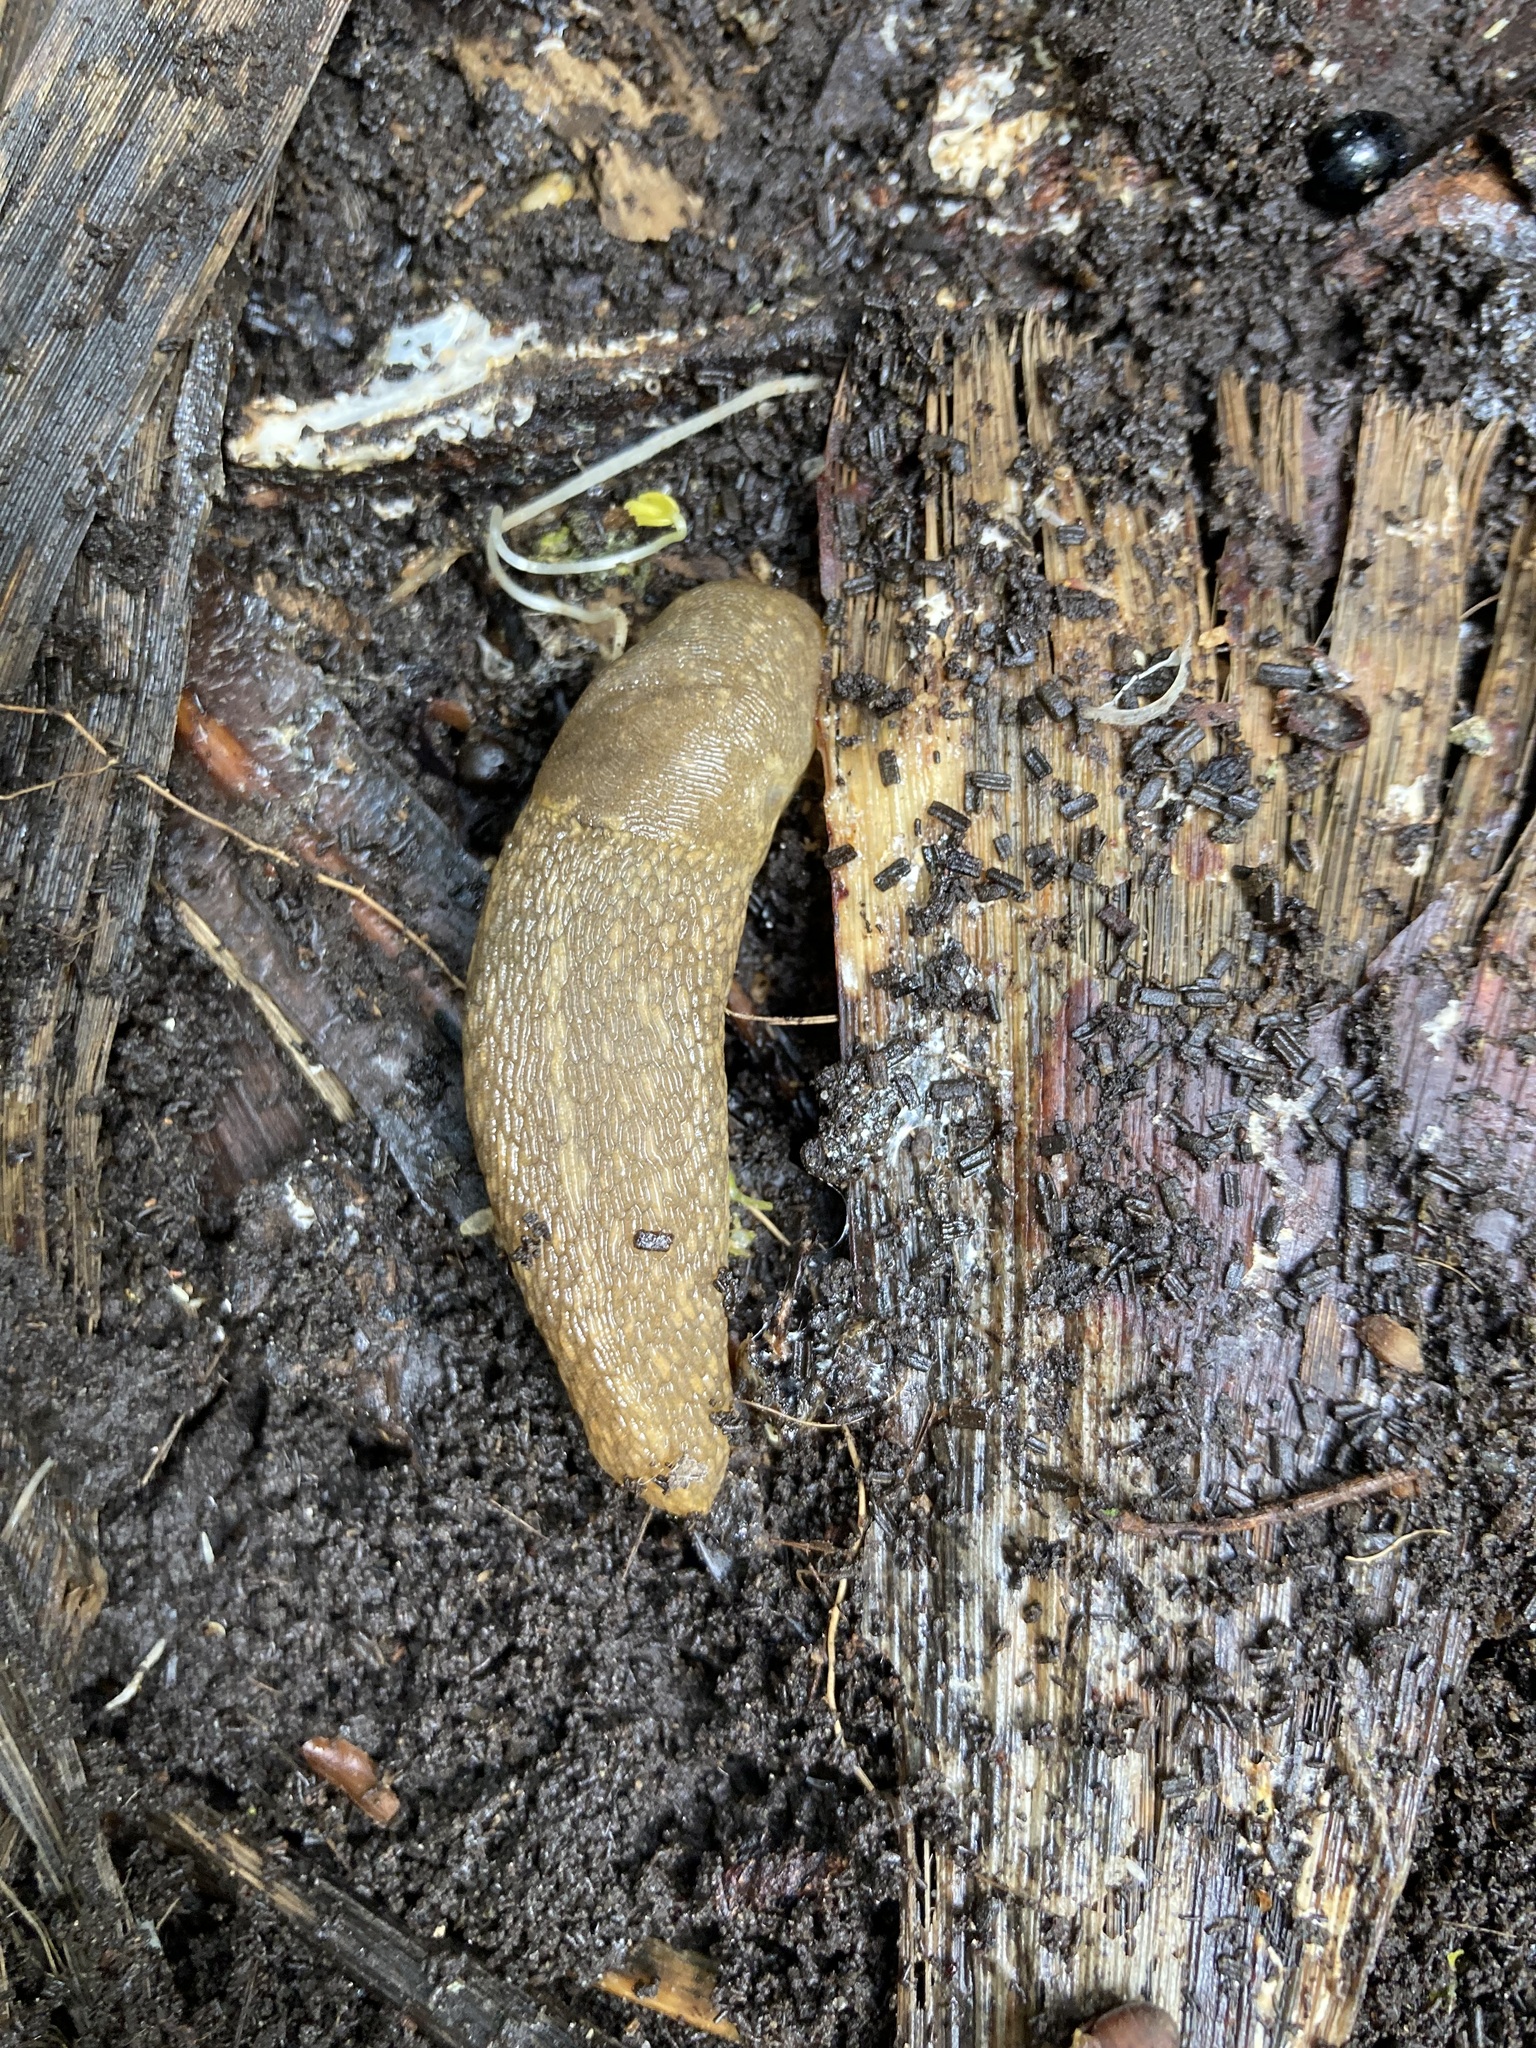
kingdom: Animalia
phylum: Mollusca
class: Gastropoda
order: Stylommatophora
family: Limacidae
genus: Limacus
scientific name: Limacus flavus
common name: Yellow gardenslug
